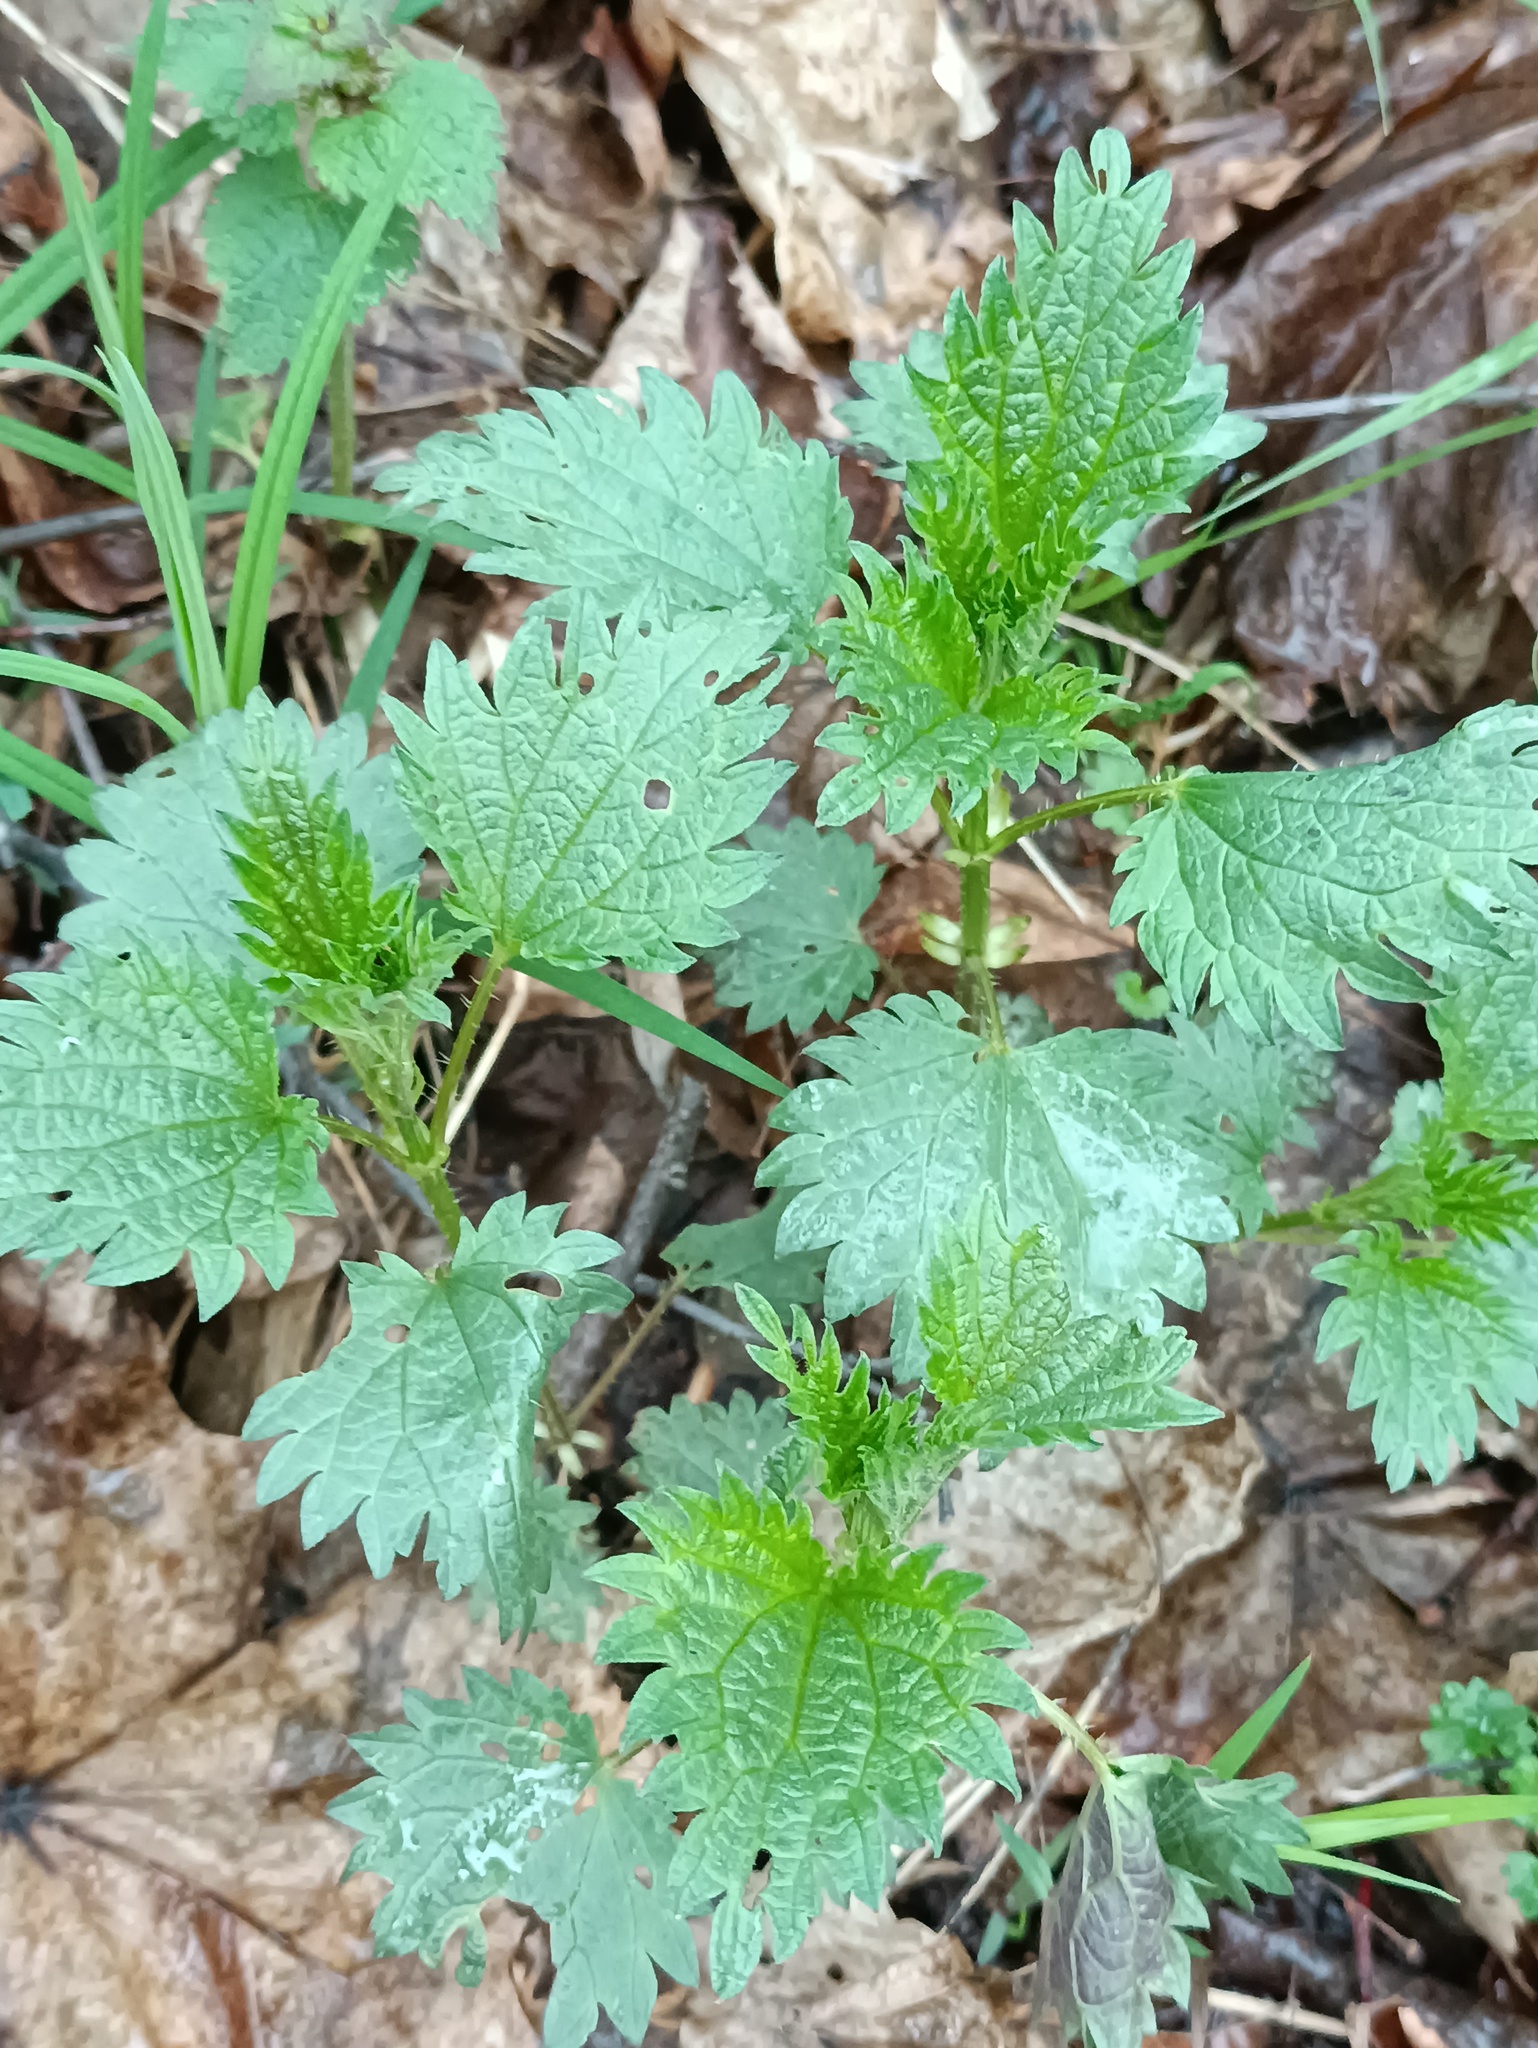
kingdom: Plantae
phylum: Tracheophyta
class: Magnoliopsida
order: Rosales
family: Urticaceae
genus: Urtica
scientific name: Urtica dioica
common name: Common nettle
